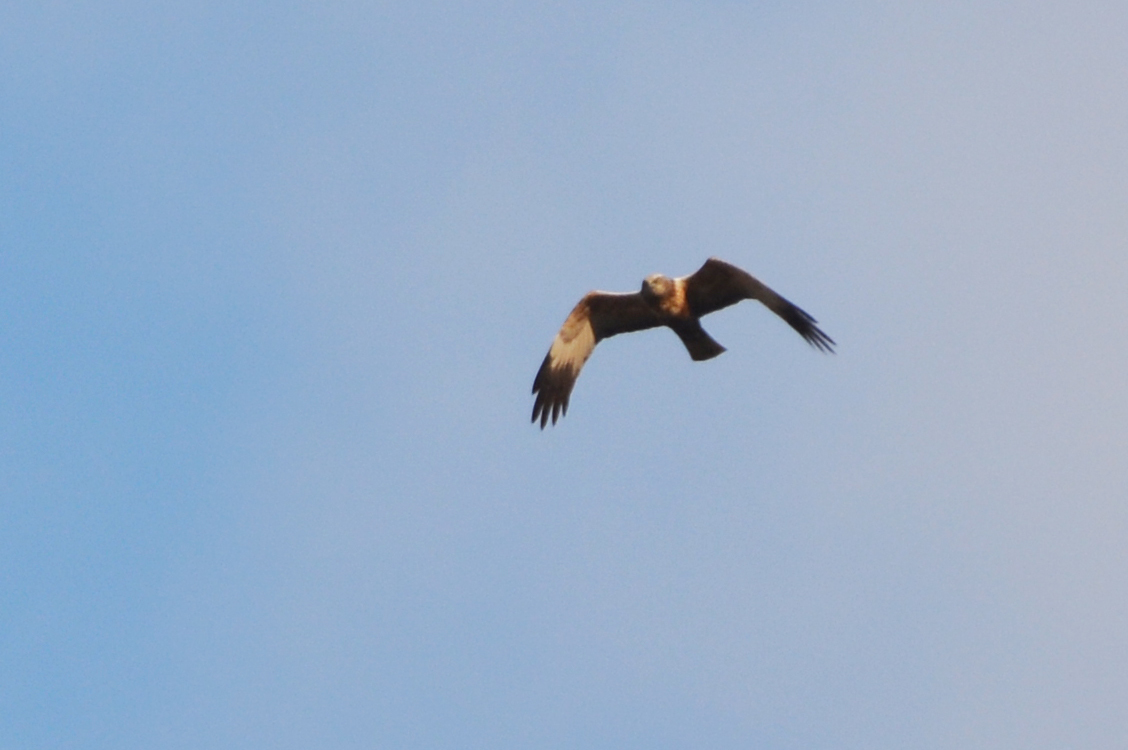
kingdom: Animalia
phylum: Chordata
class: Aves
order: Accipitriformes
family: Accipitridae
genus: Circus
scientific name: Circus aeruginosus
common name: Western marsh harrier
